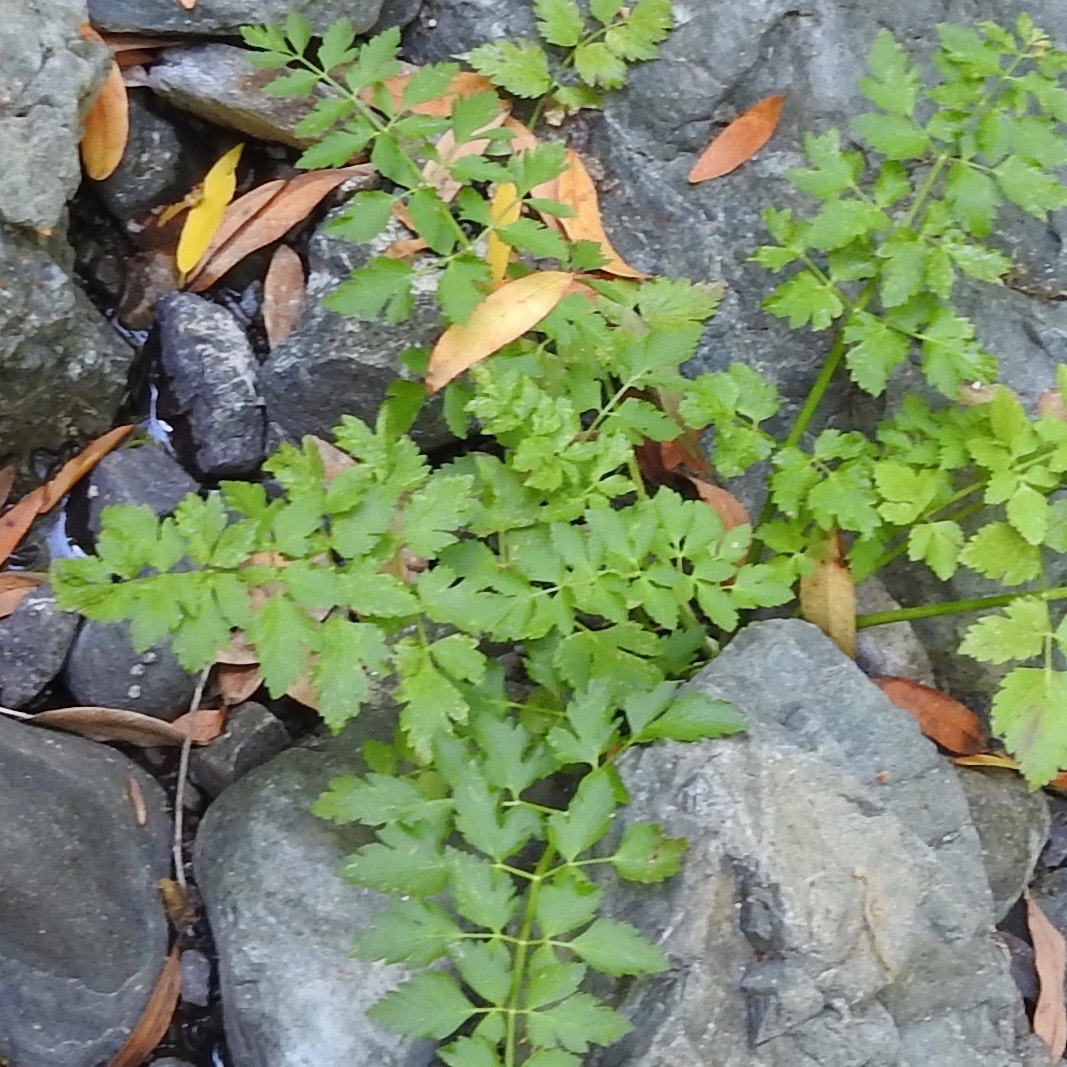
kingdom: Plantae
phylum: Tracheophyta
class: Magnoliopsida
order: Apiales
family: Apiaceae
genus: Oenanthe
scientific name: Oenanthe sarmentosa
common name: American water-parsley
